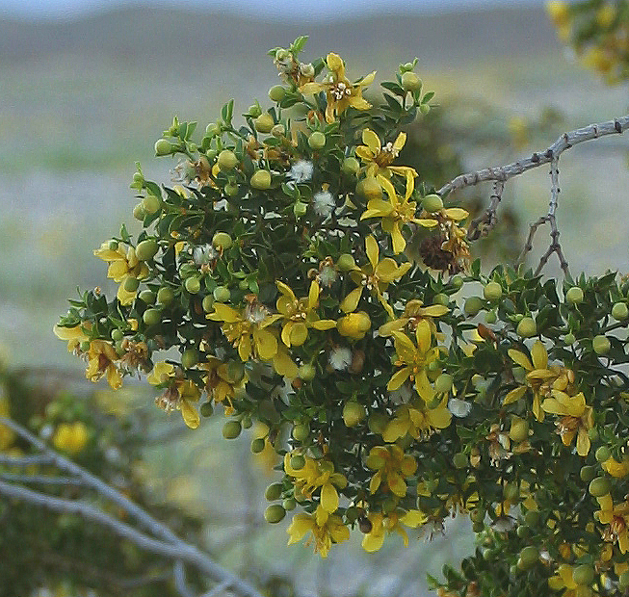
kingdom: Plantae
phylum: Tracheophyta
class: Magnoliopsida
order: Zygophyllales
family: Zygophyllaceae
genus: Larrea
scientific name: Larrea tridentata
